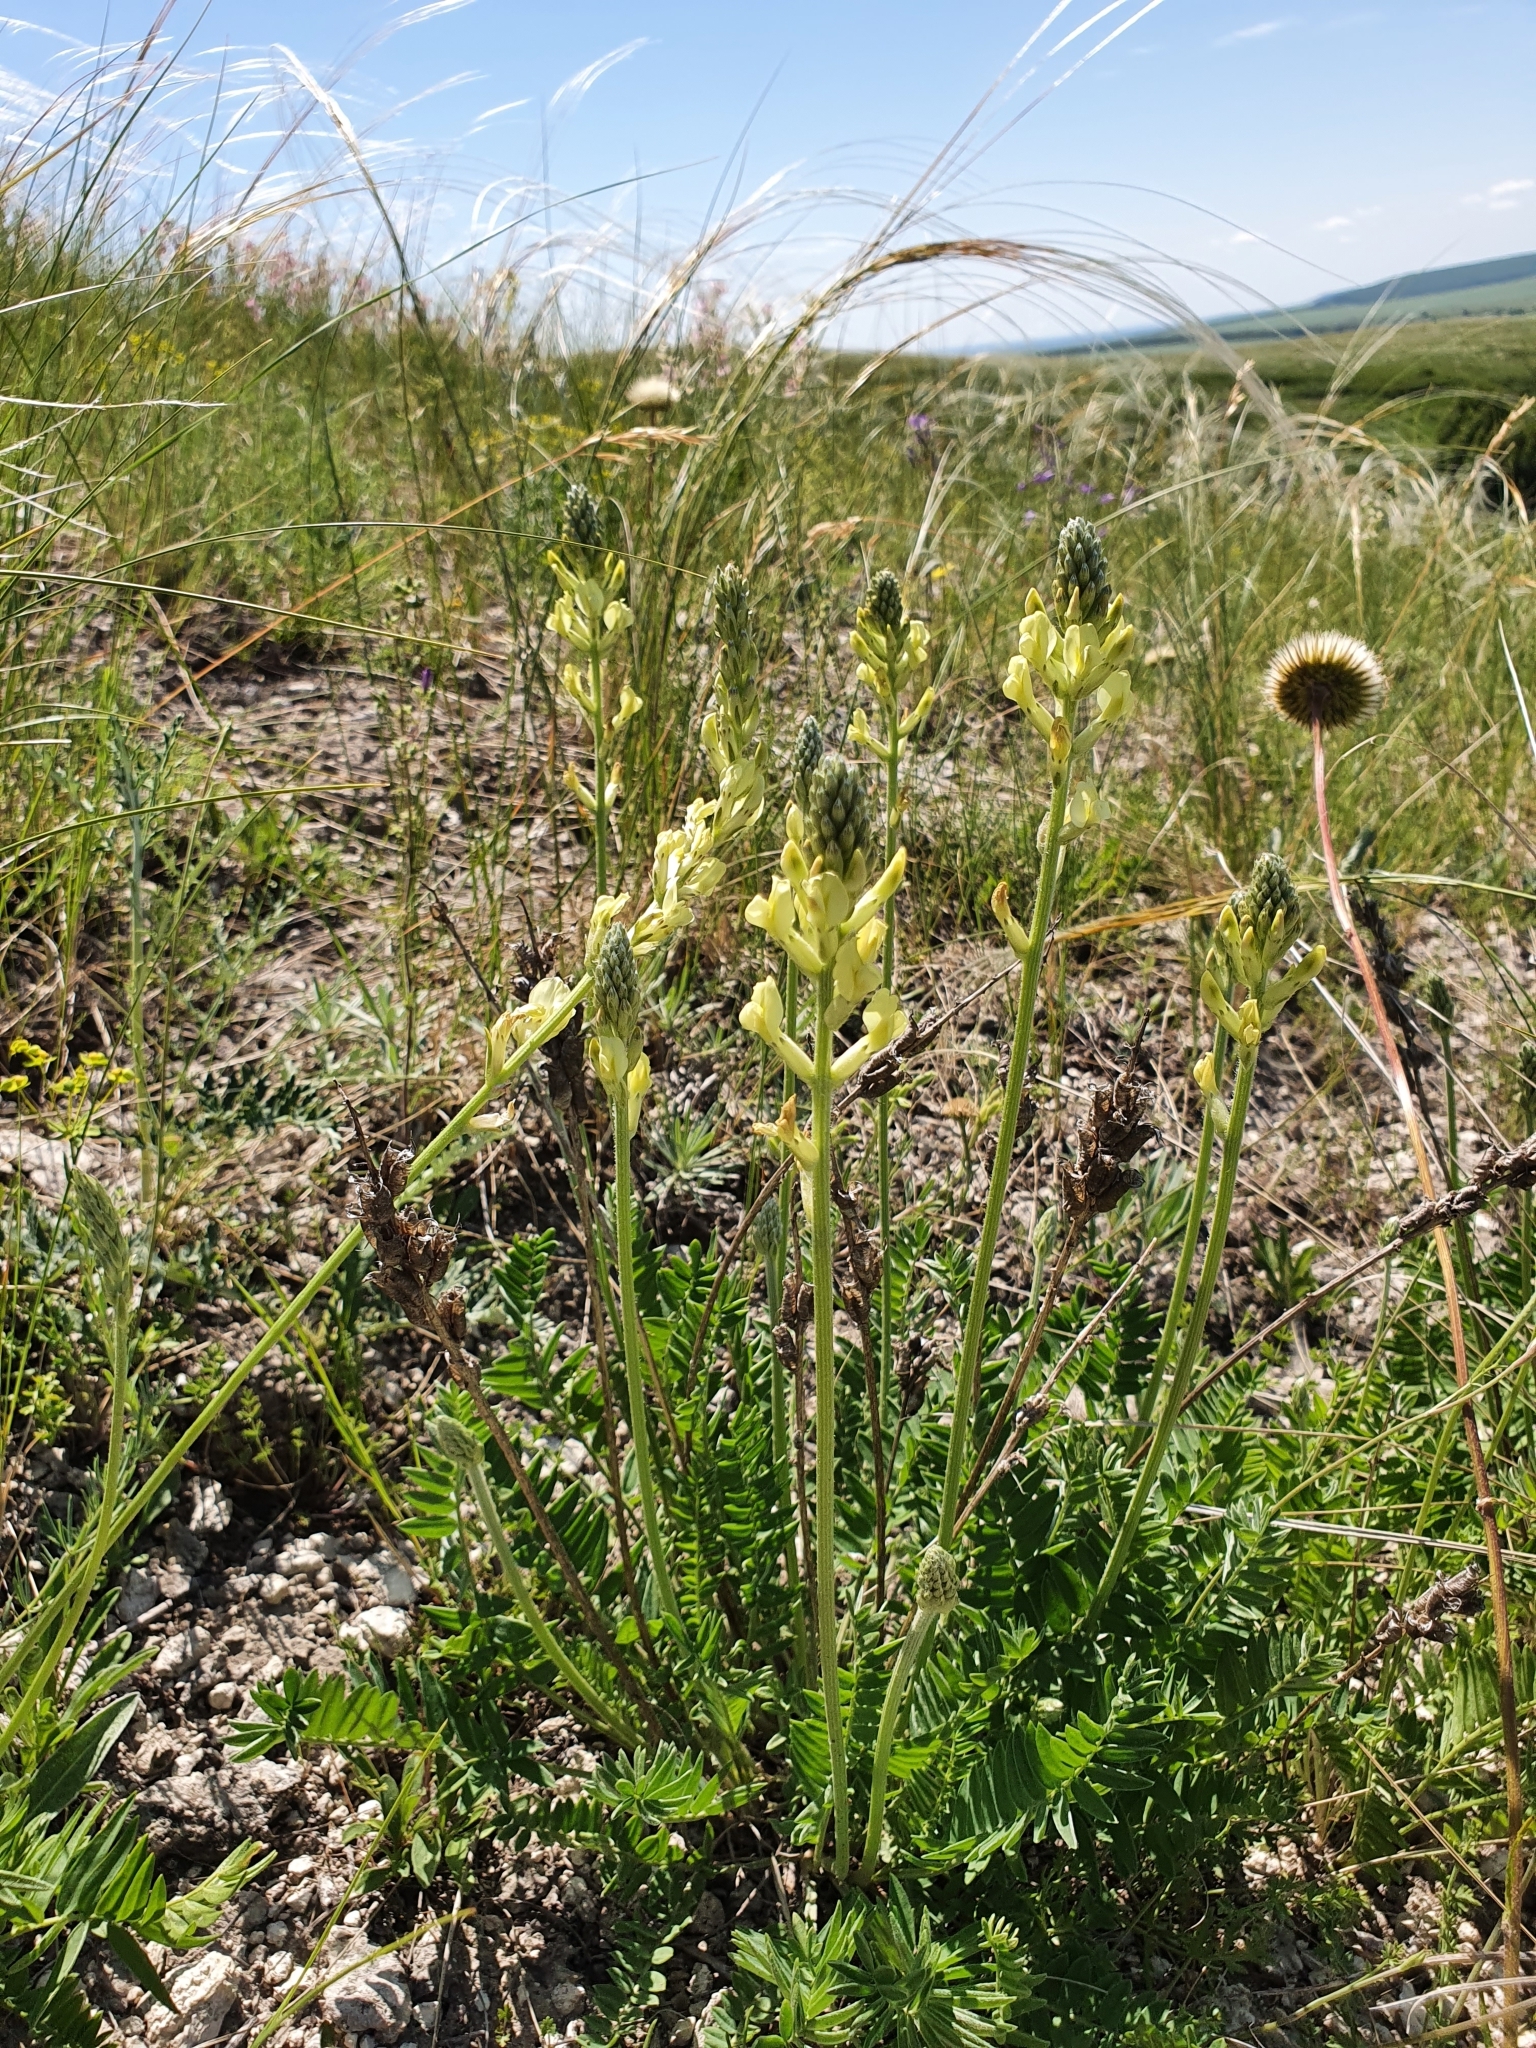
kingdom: Plantae
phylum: Tracheophyta
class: Magnoliopsida
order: Fabales
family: Fabaceae
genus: Oxytropis
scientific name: Oxytropis hippolyti
